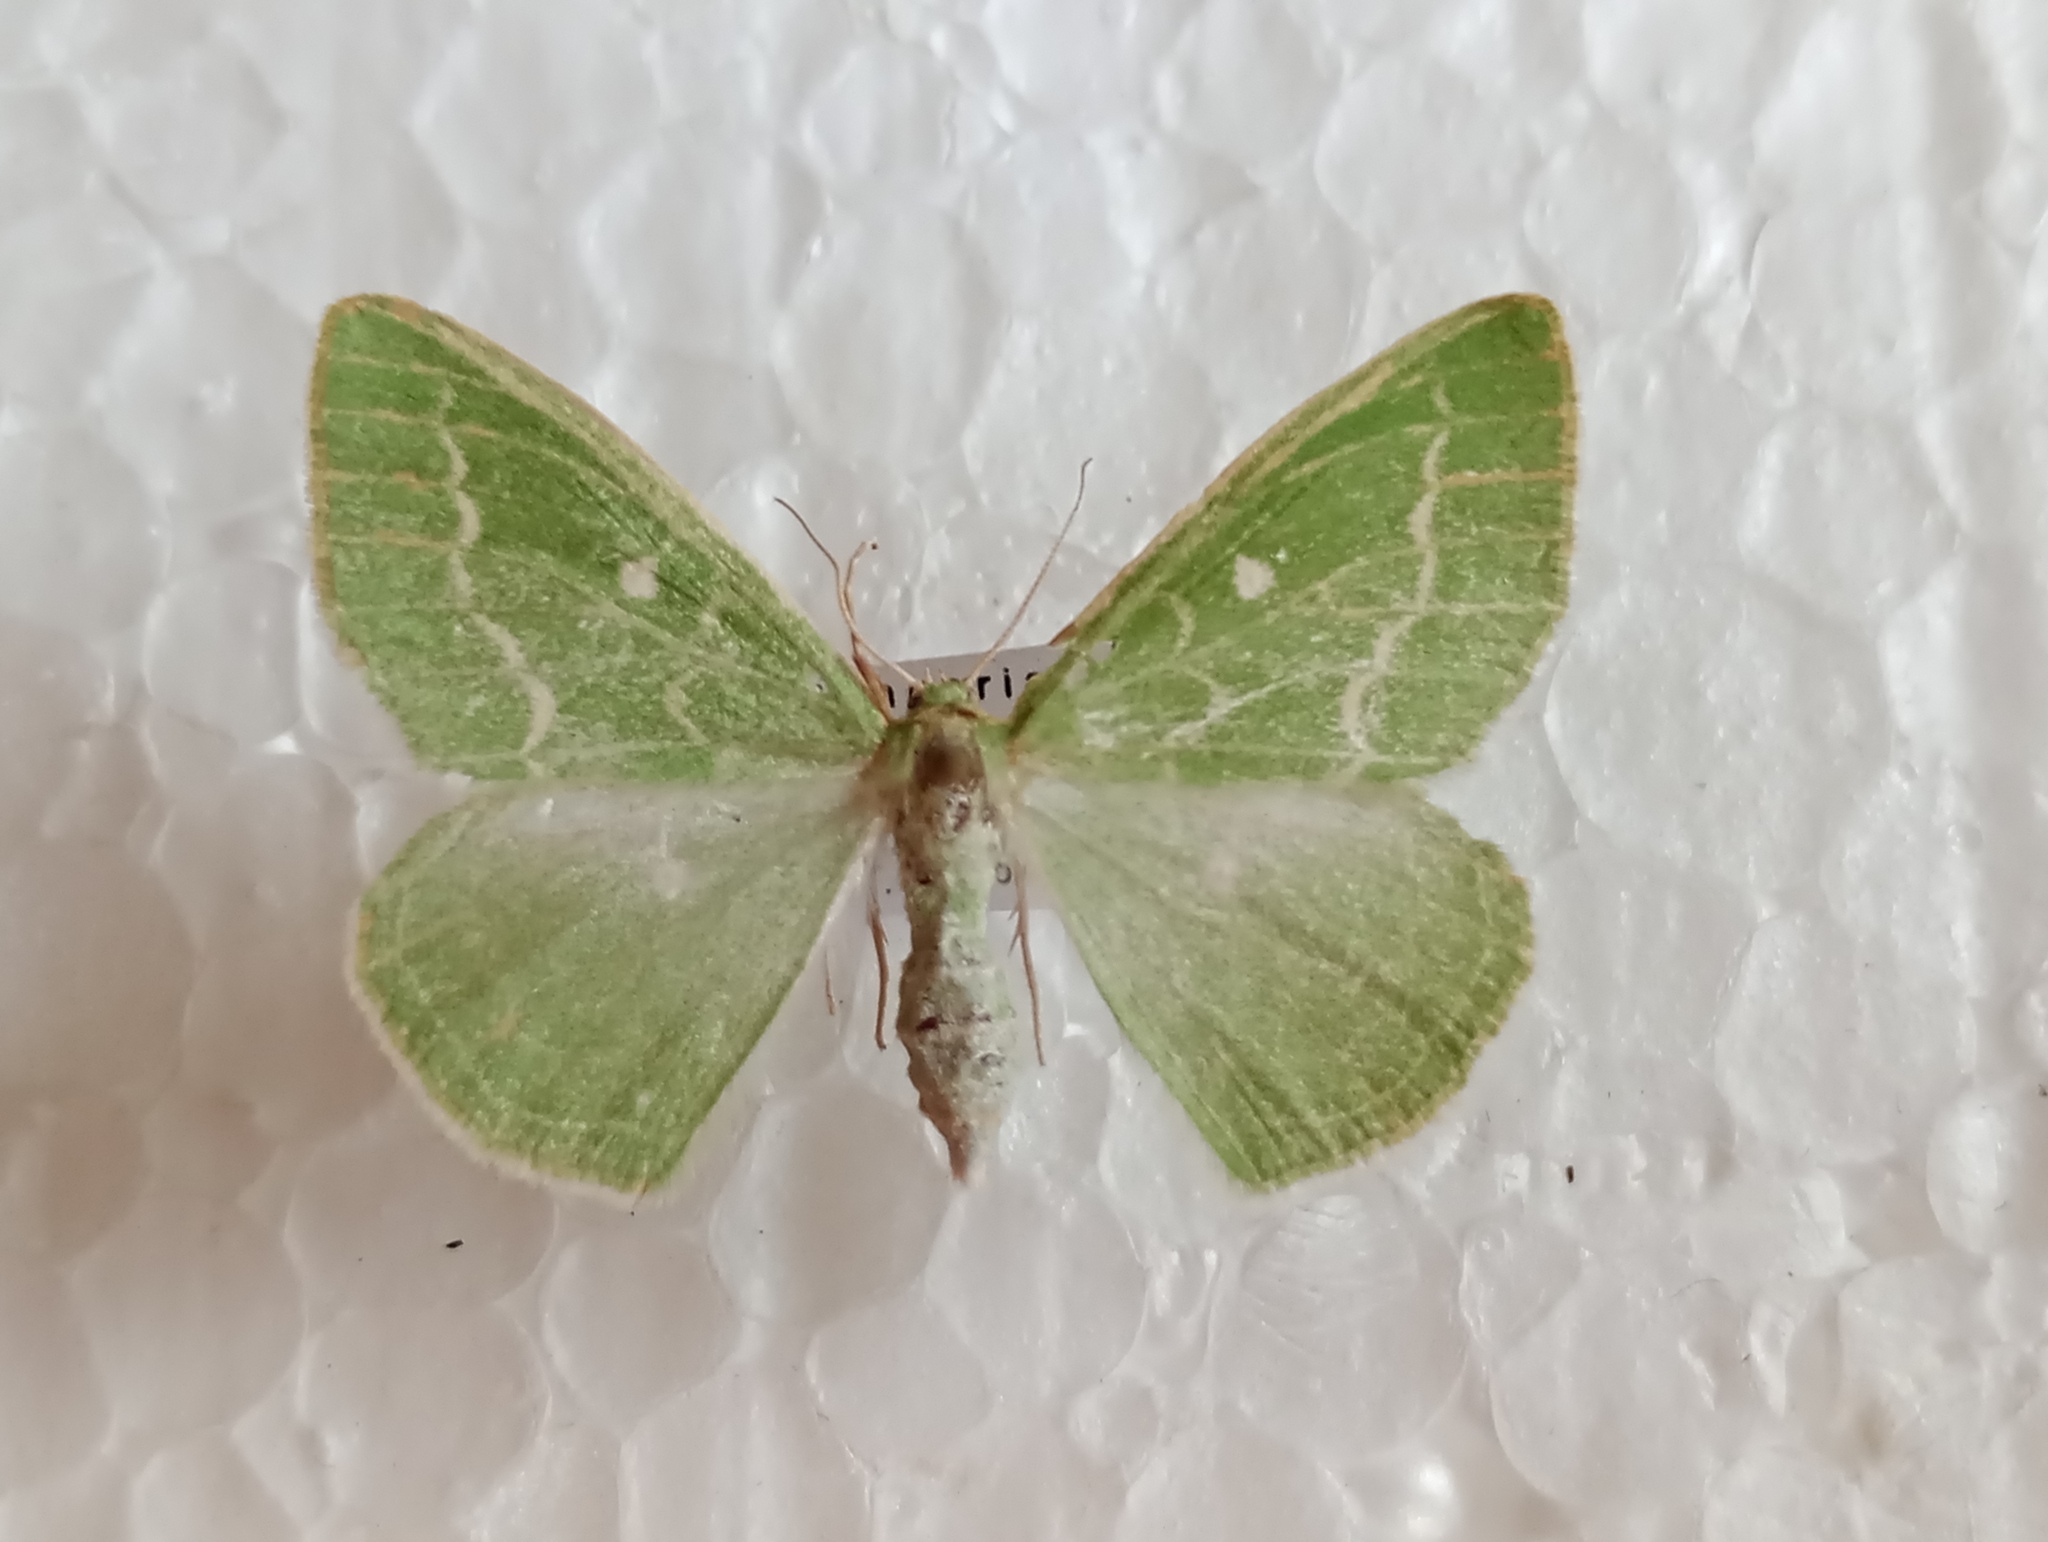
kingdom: Animalia
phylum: Arthropoda
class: Insecta
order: Lepidoptera
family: Geometridae
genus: Thetidia
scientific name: Thetidia smaragdaria
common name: Essex emerald
